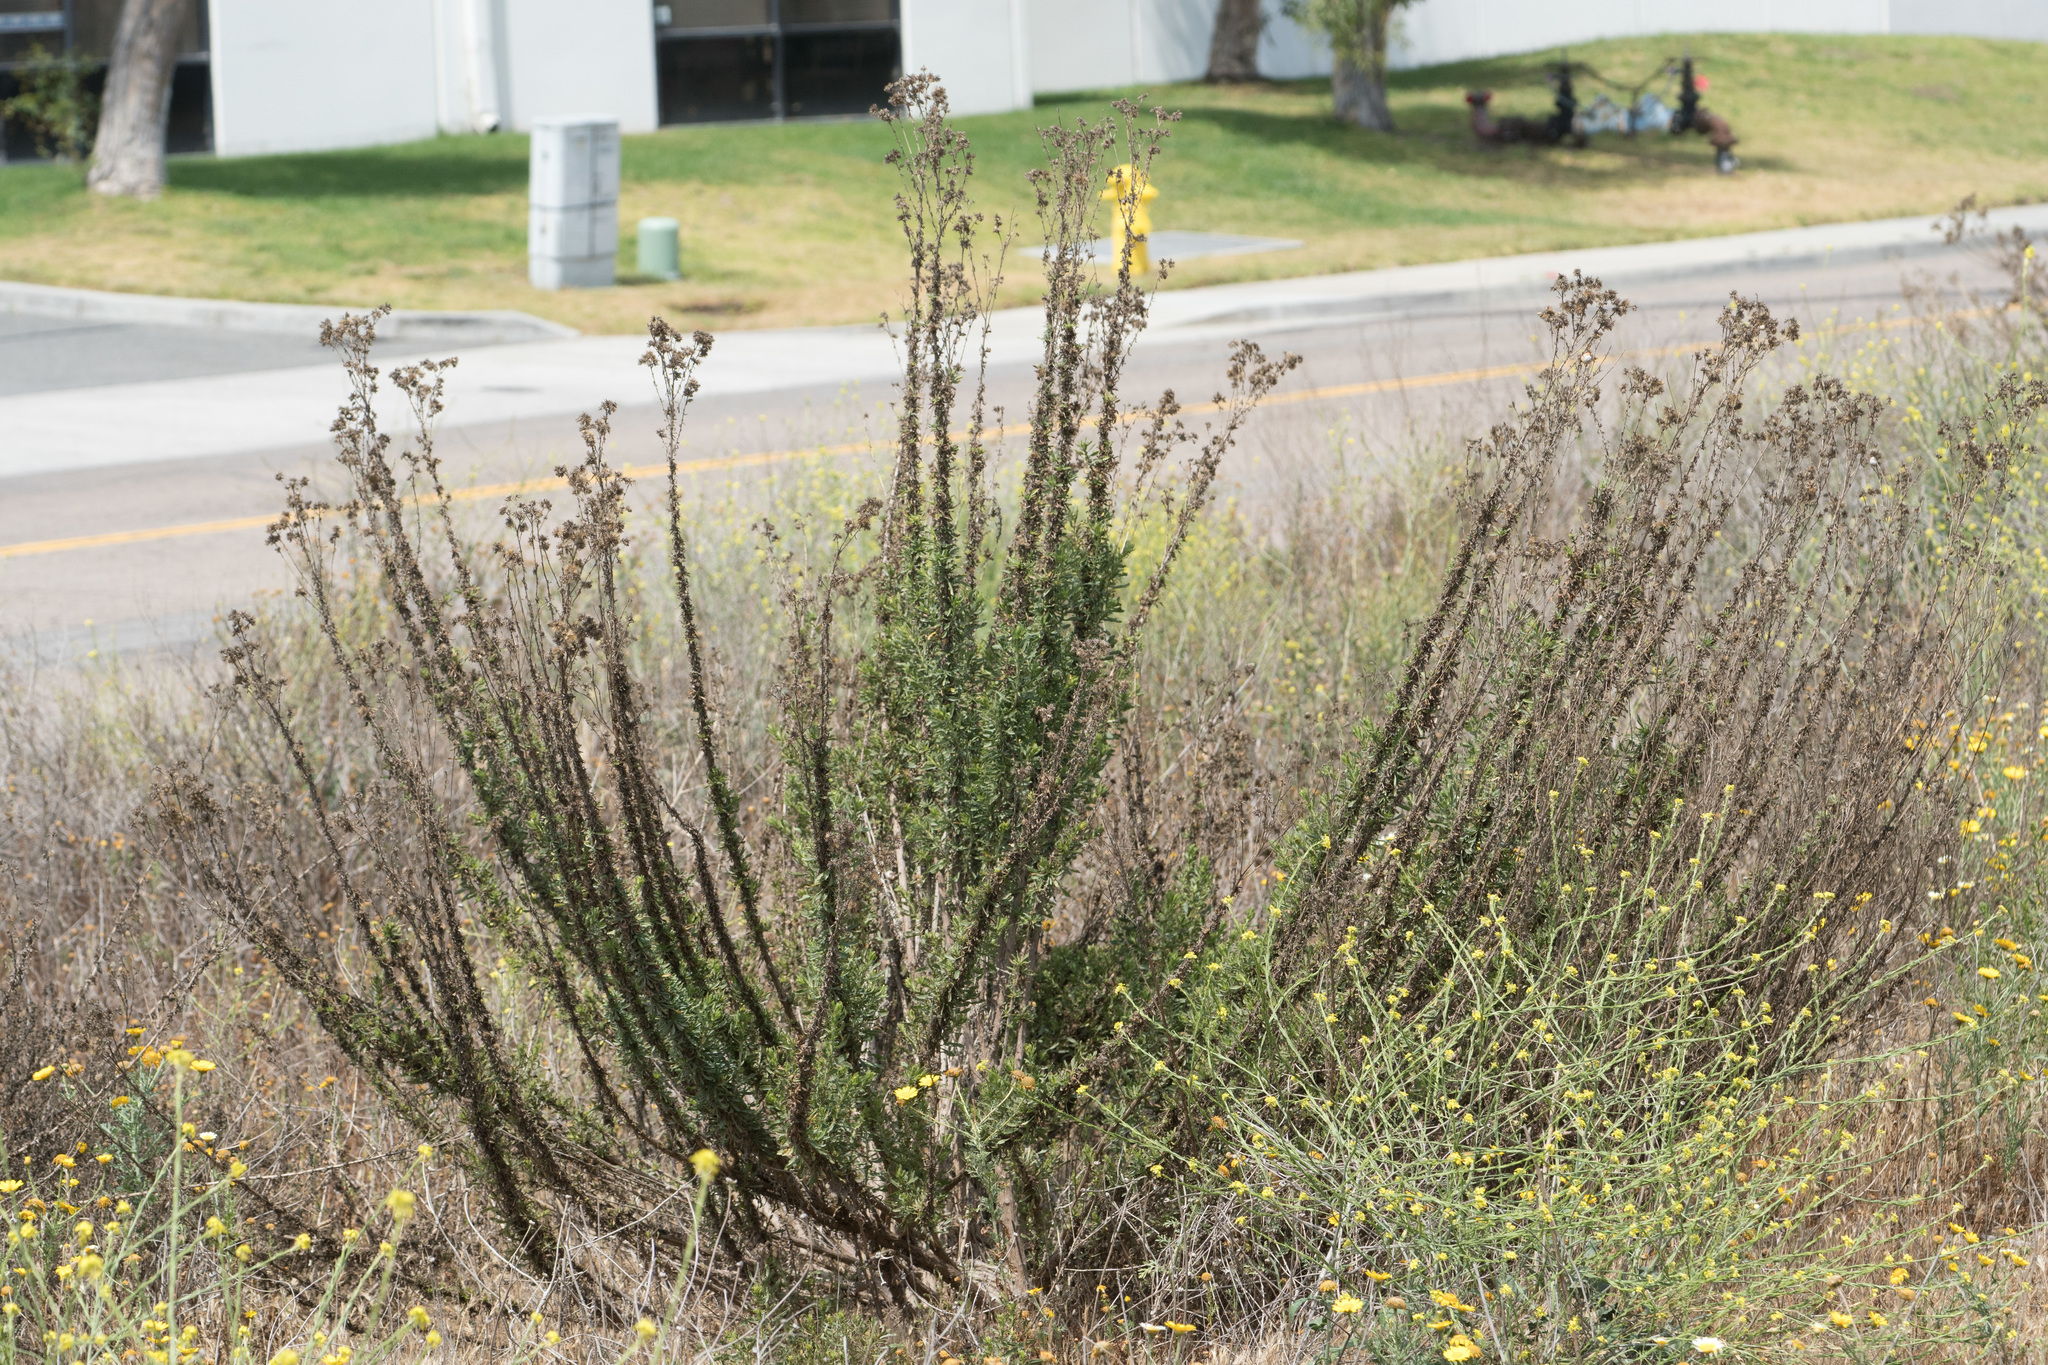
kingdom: Plantae
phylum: Tracheophyta
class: Magnoliopsida
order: Asterales
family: Asteraceae
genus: Isocoma
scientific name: Isocoma menziesii
